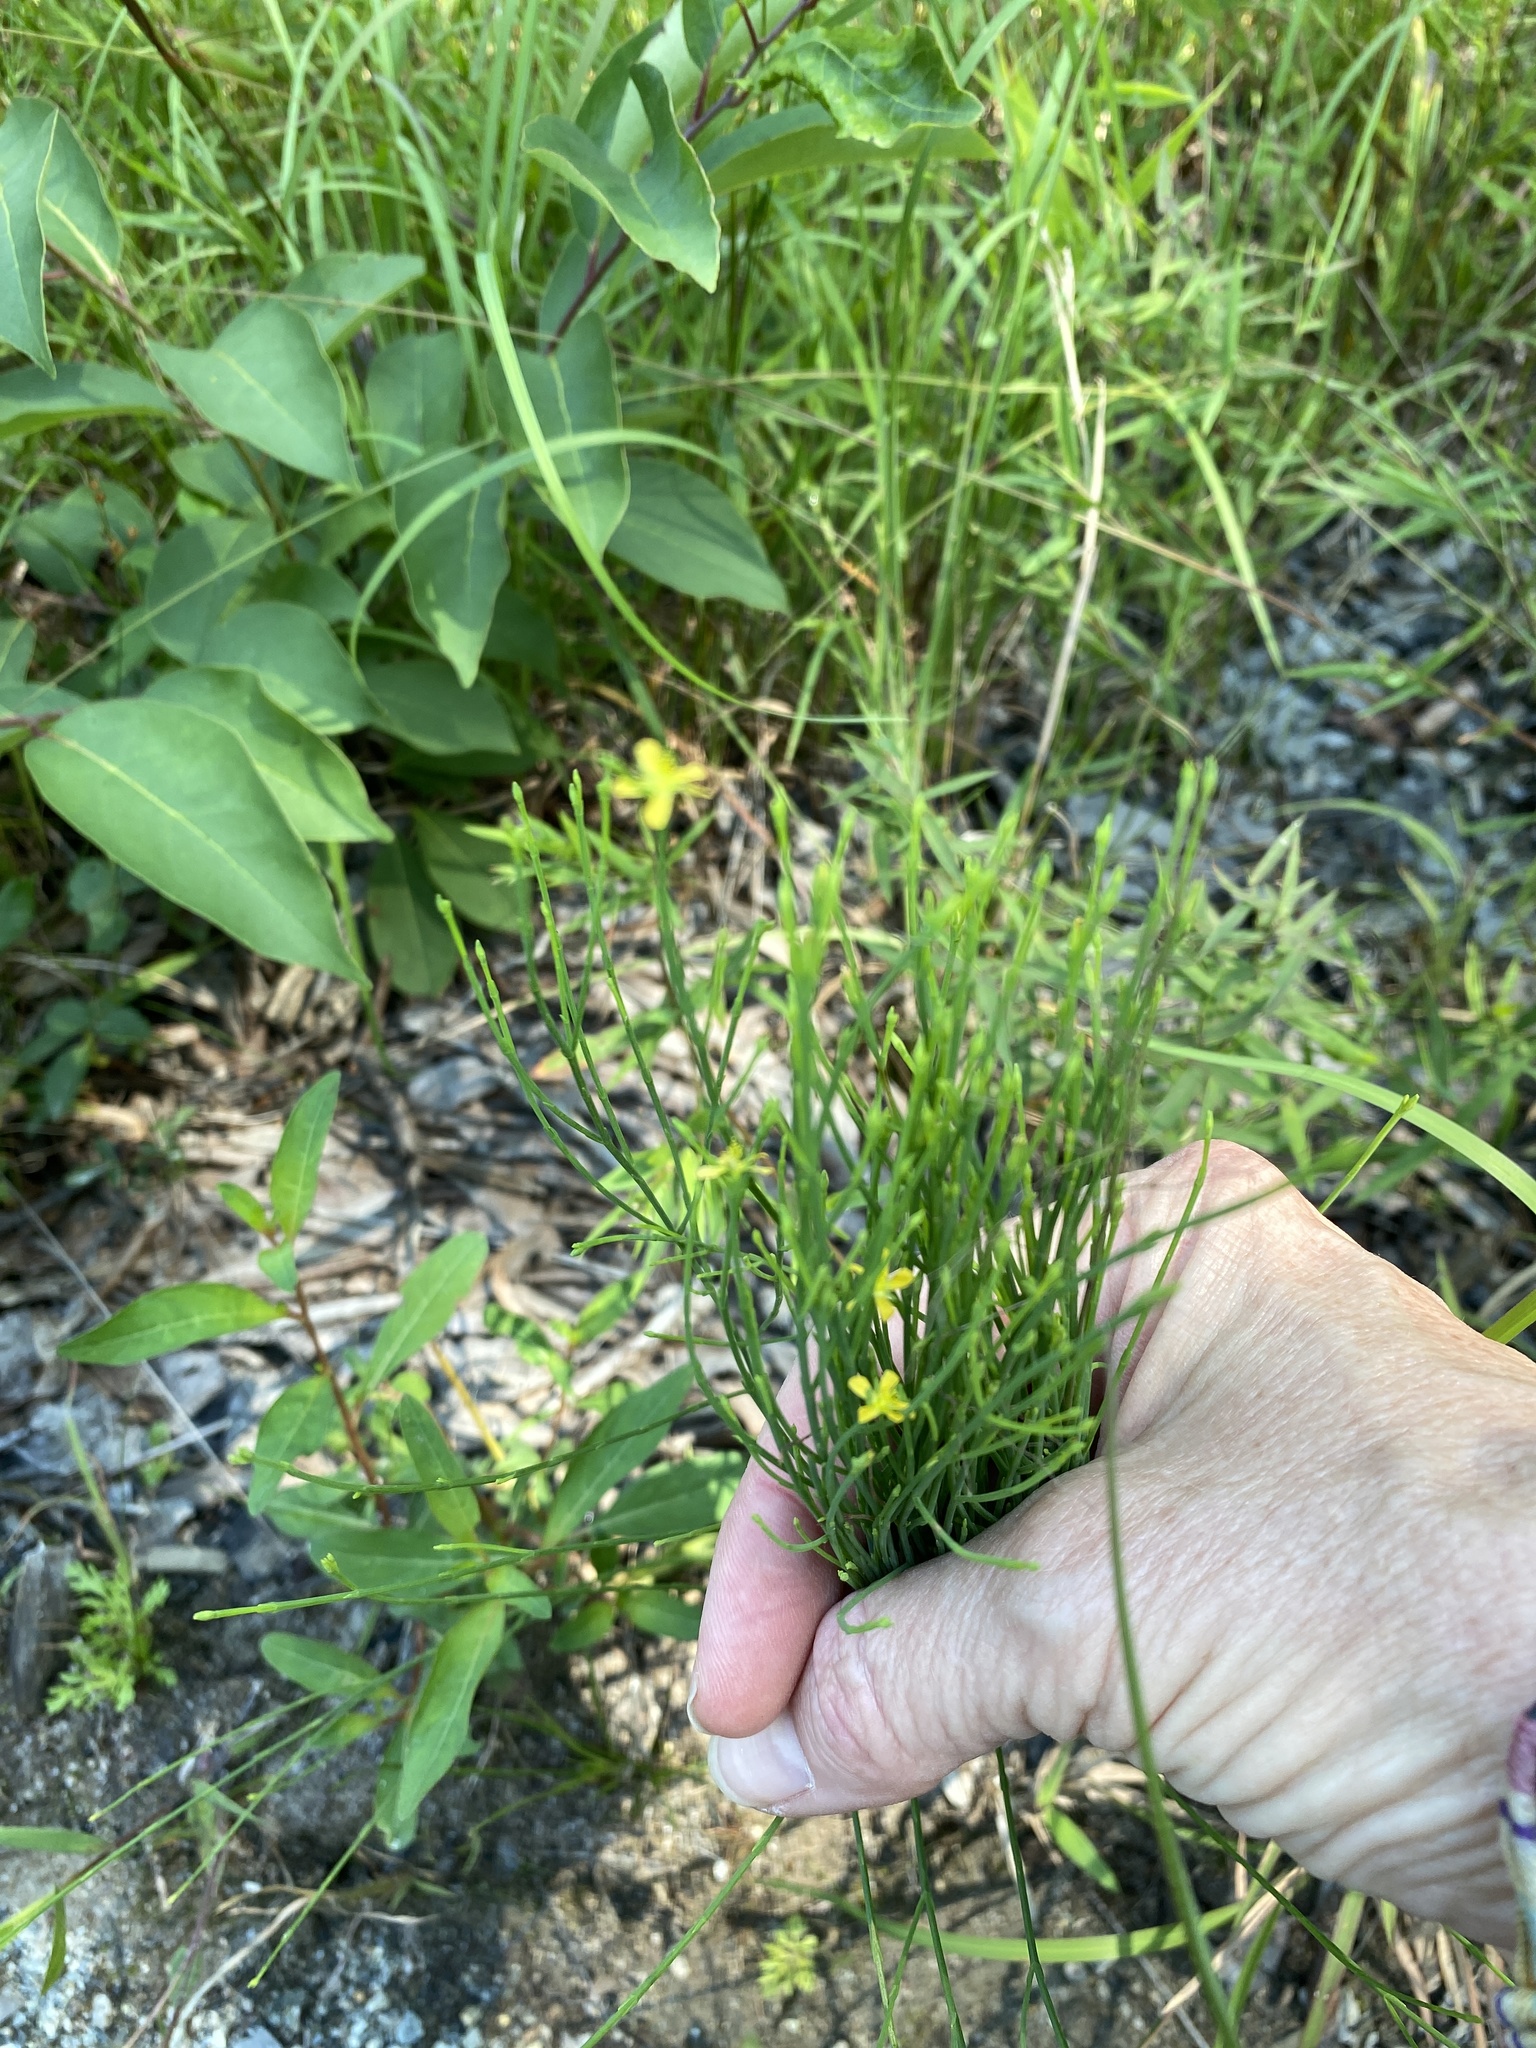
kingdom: Plantae
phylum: Tracheophyta
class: Magnoliopsida
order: Malpighiales
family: Hypericaceae
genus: Hypericum
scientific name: Hypericum gentianoides
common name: Gentian-leaved st. john's-wort
